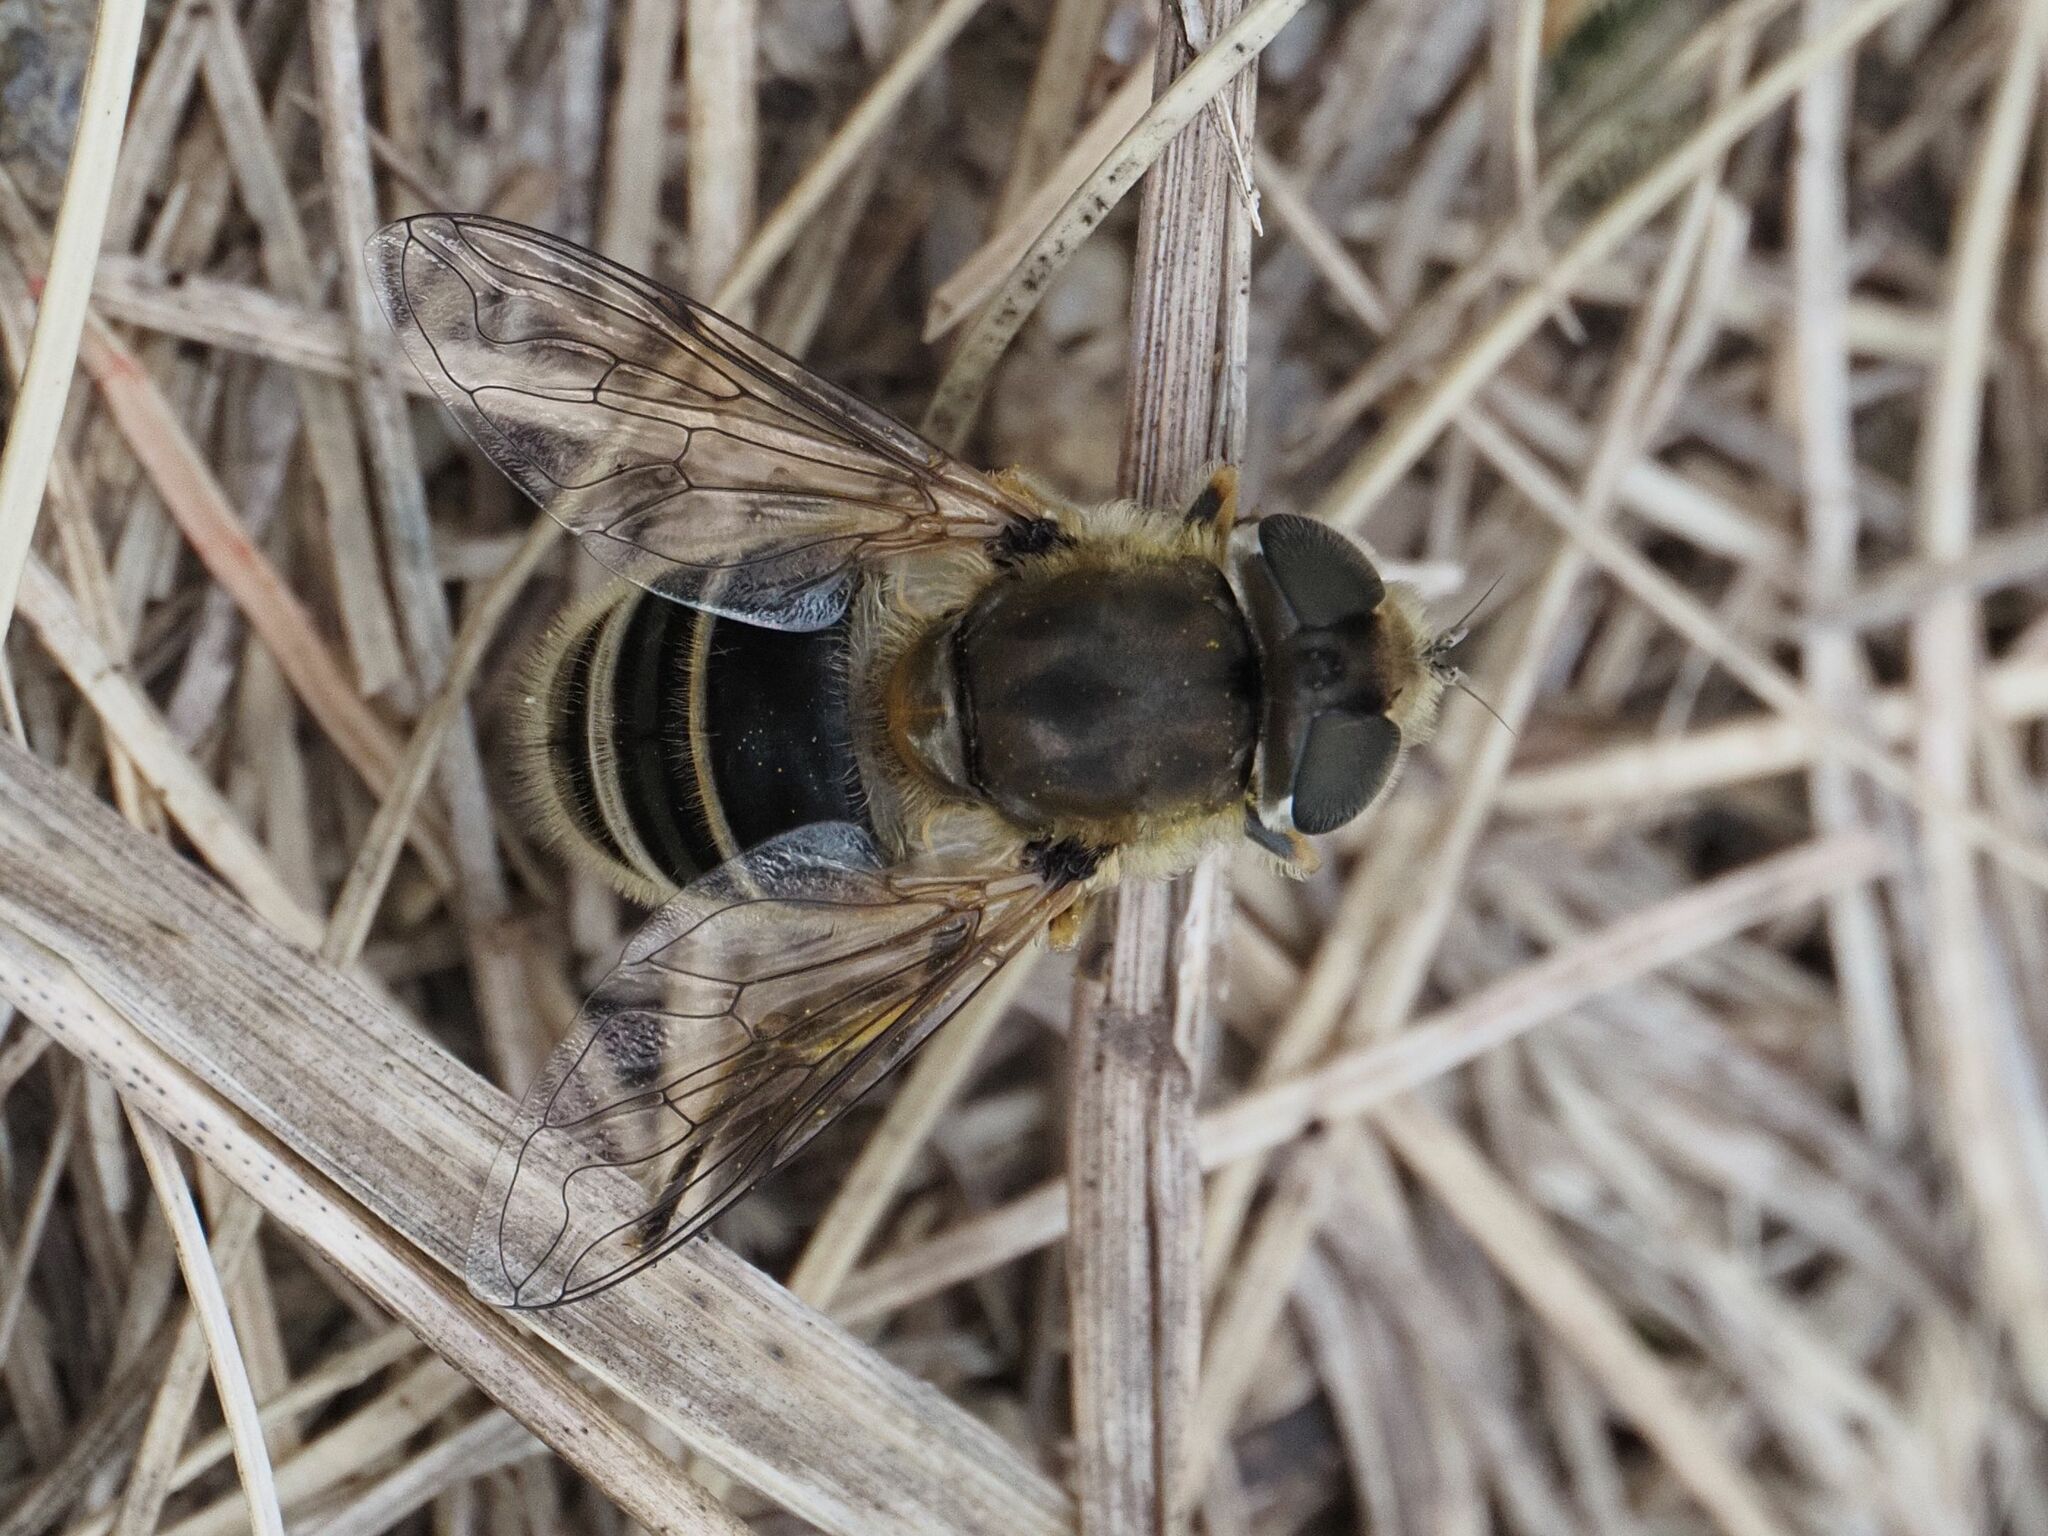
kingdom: Animalia
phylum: Arthropoda
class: Insecta
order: Diptera
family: Syrphidae
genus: Eristalis
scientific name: Eristalis arbustorum
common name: Hover fly
